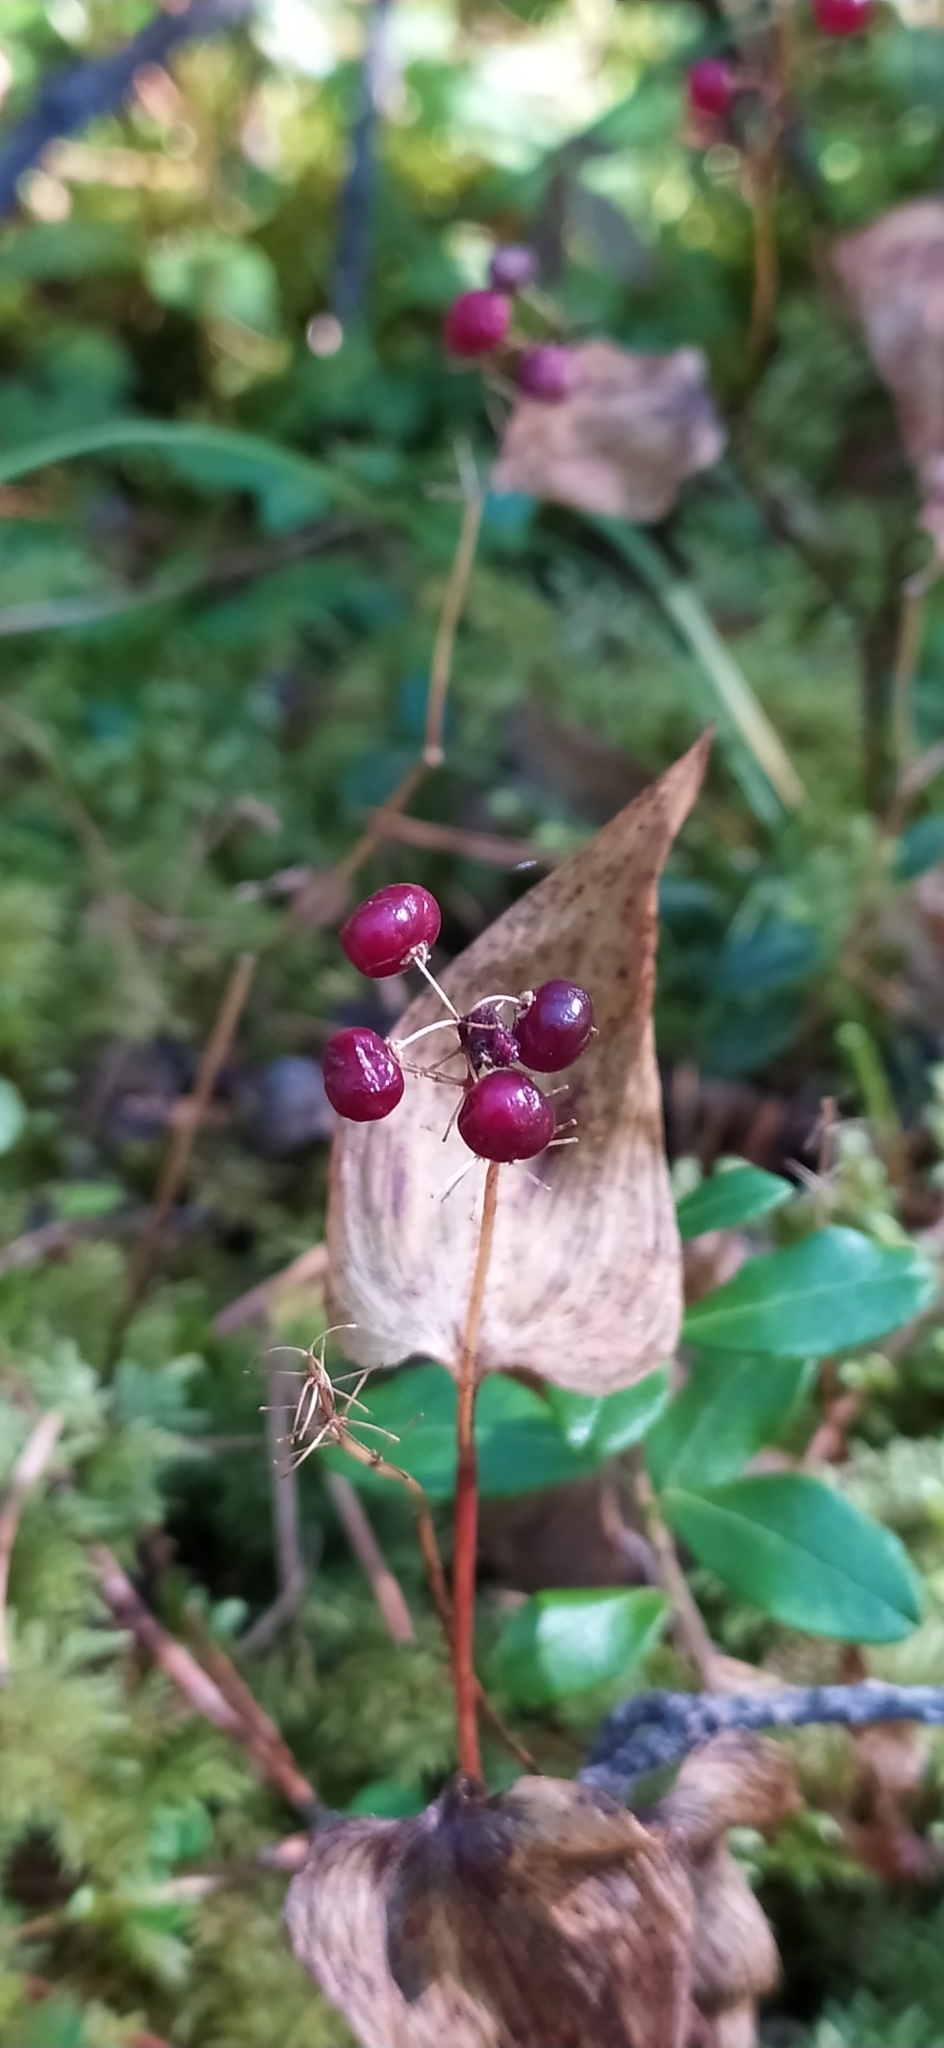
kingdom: Plantae
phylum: Tracheophyta
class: Liliopsida
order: Asparagales
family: Asparagaceae
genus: Maianthemum
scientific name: Maianthemum bifolium
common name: May lily
